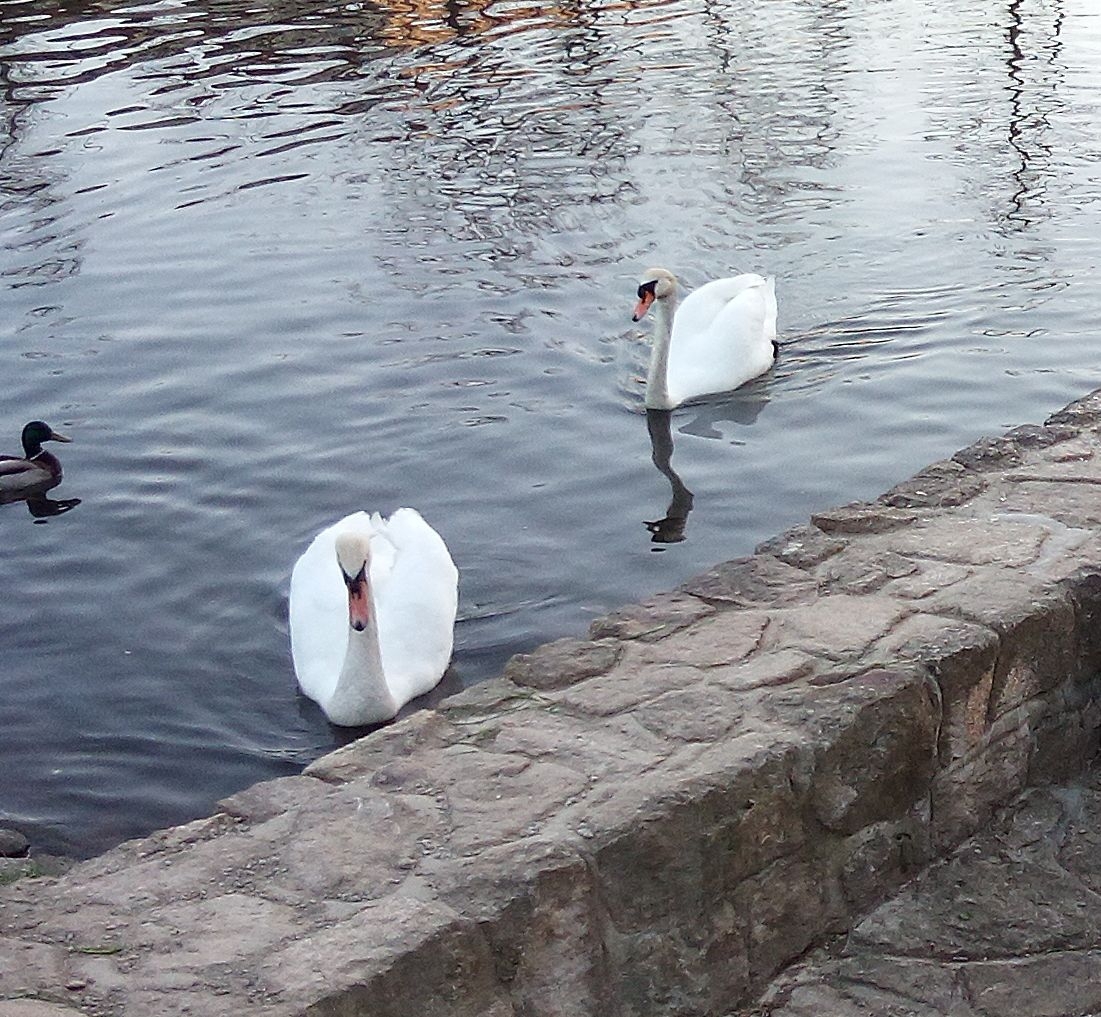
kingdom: Animalia
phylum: Chordata
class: Aves
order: Anseriformes
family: Anatidae
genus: Cygnus
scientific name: Cygnus olor
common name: Mute swan
